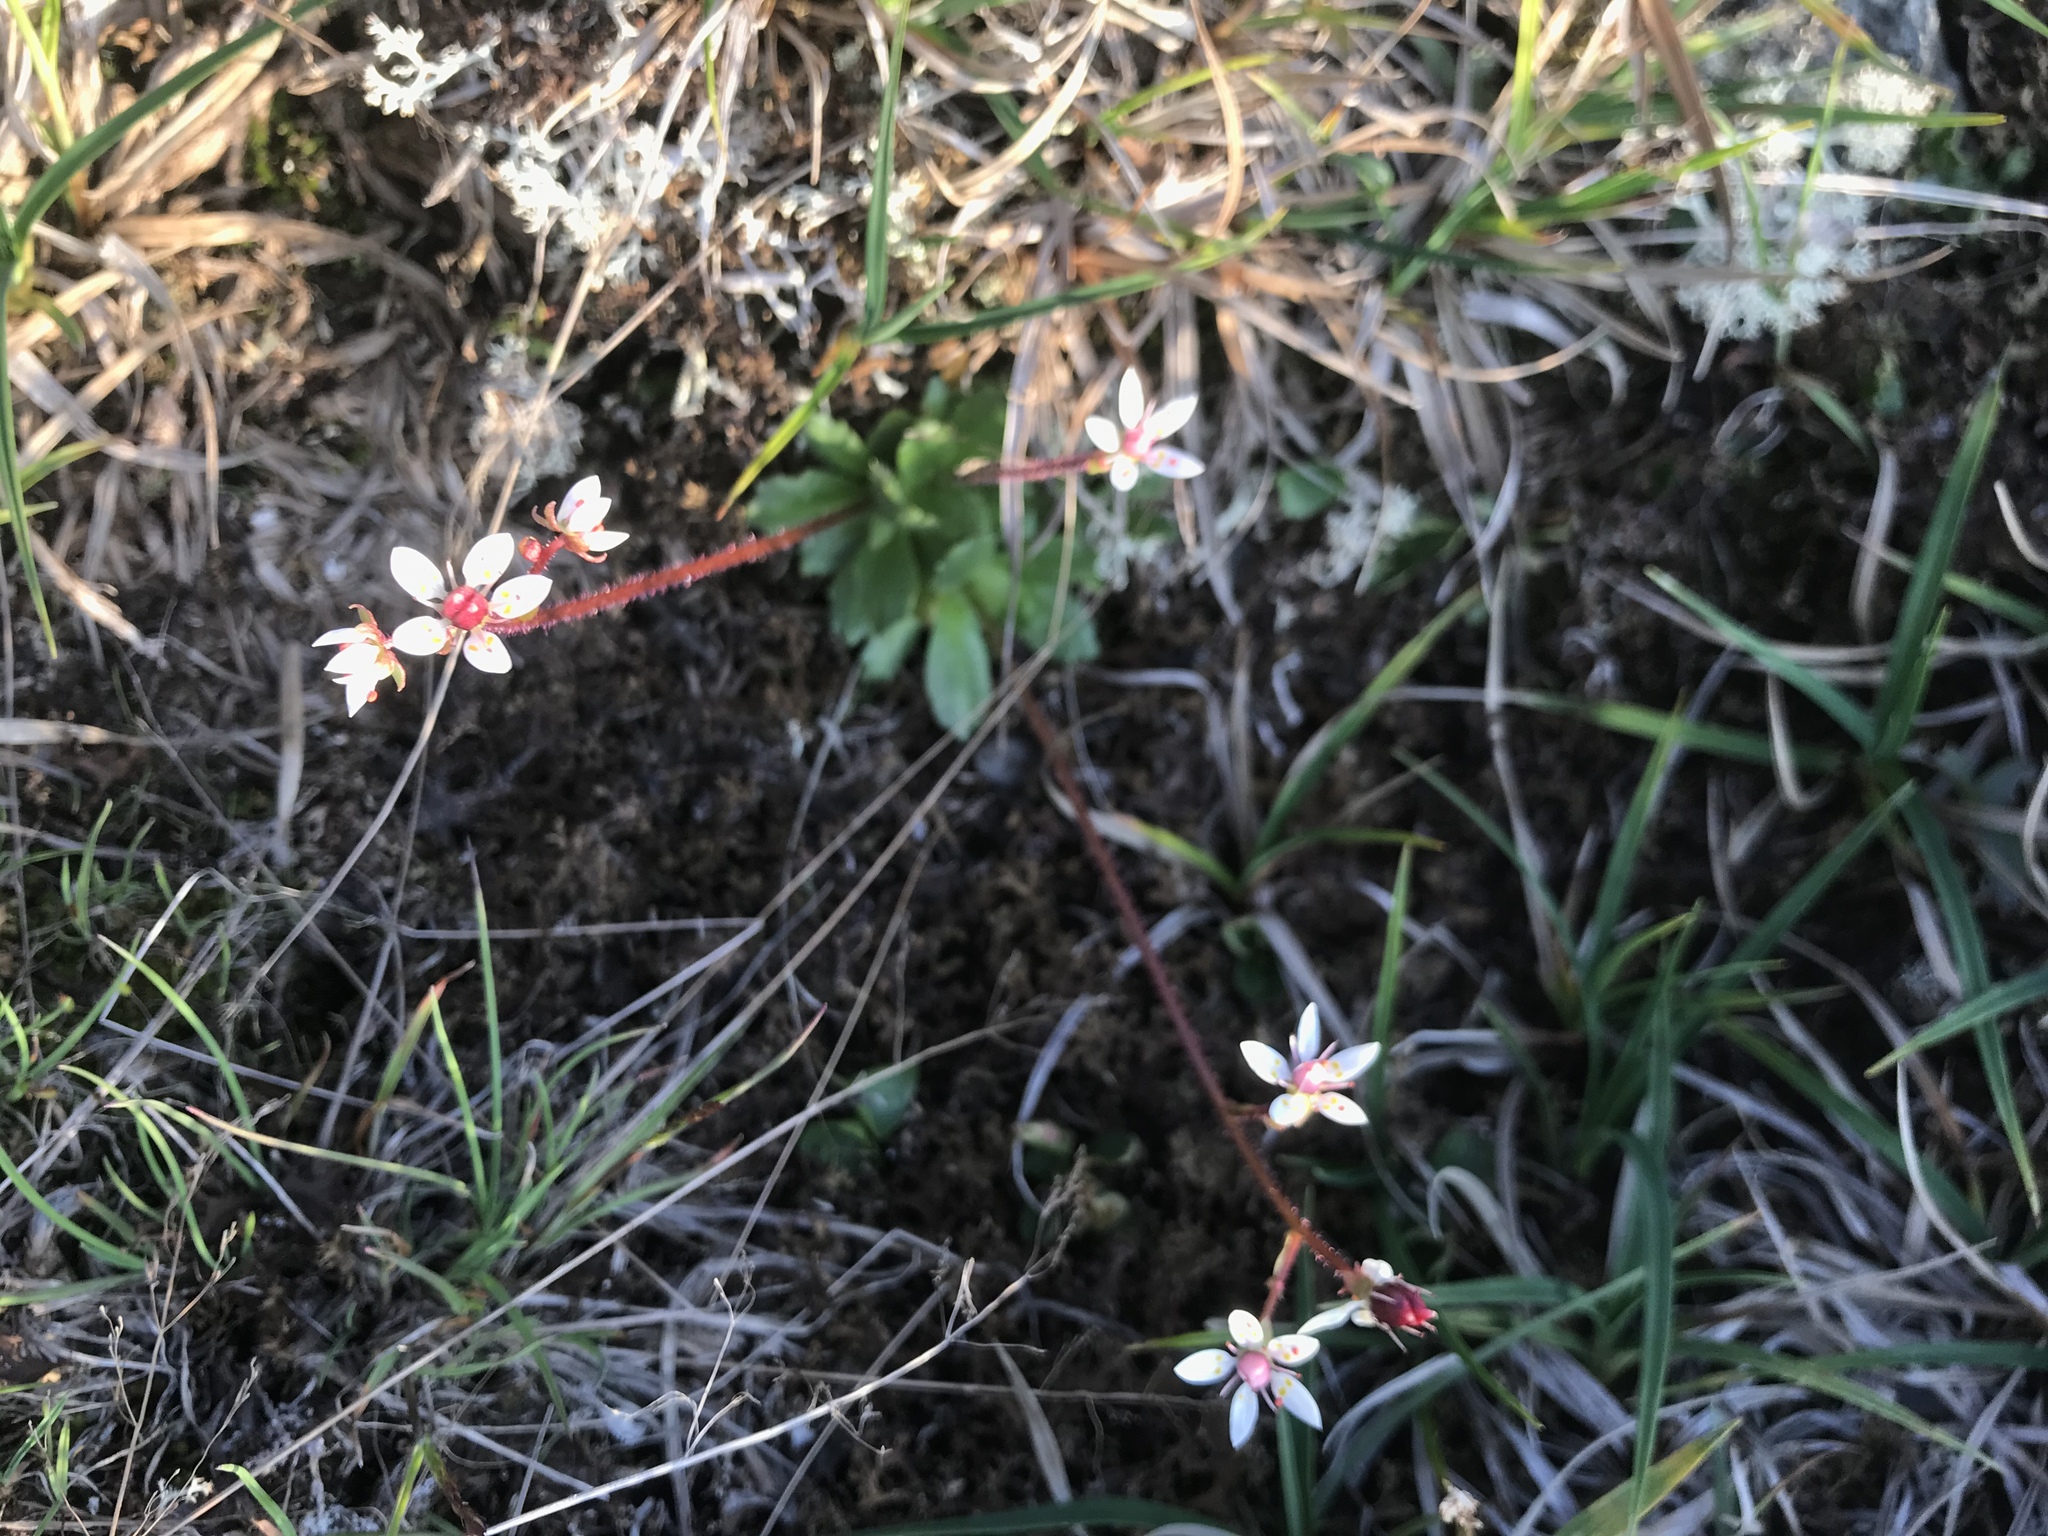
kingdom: Plantae
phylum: Tracheophyta
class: Magnoliopsida
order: Saxifragales
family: Saxifragaceae
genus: Micranthes
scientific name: Micranthes stellaris
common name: Starry saxifrage
